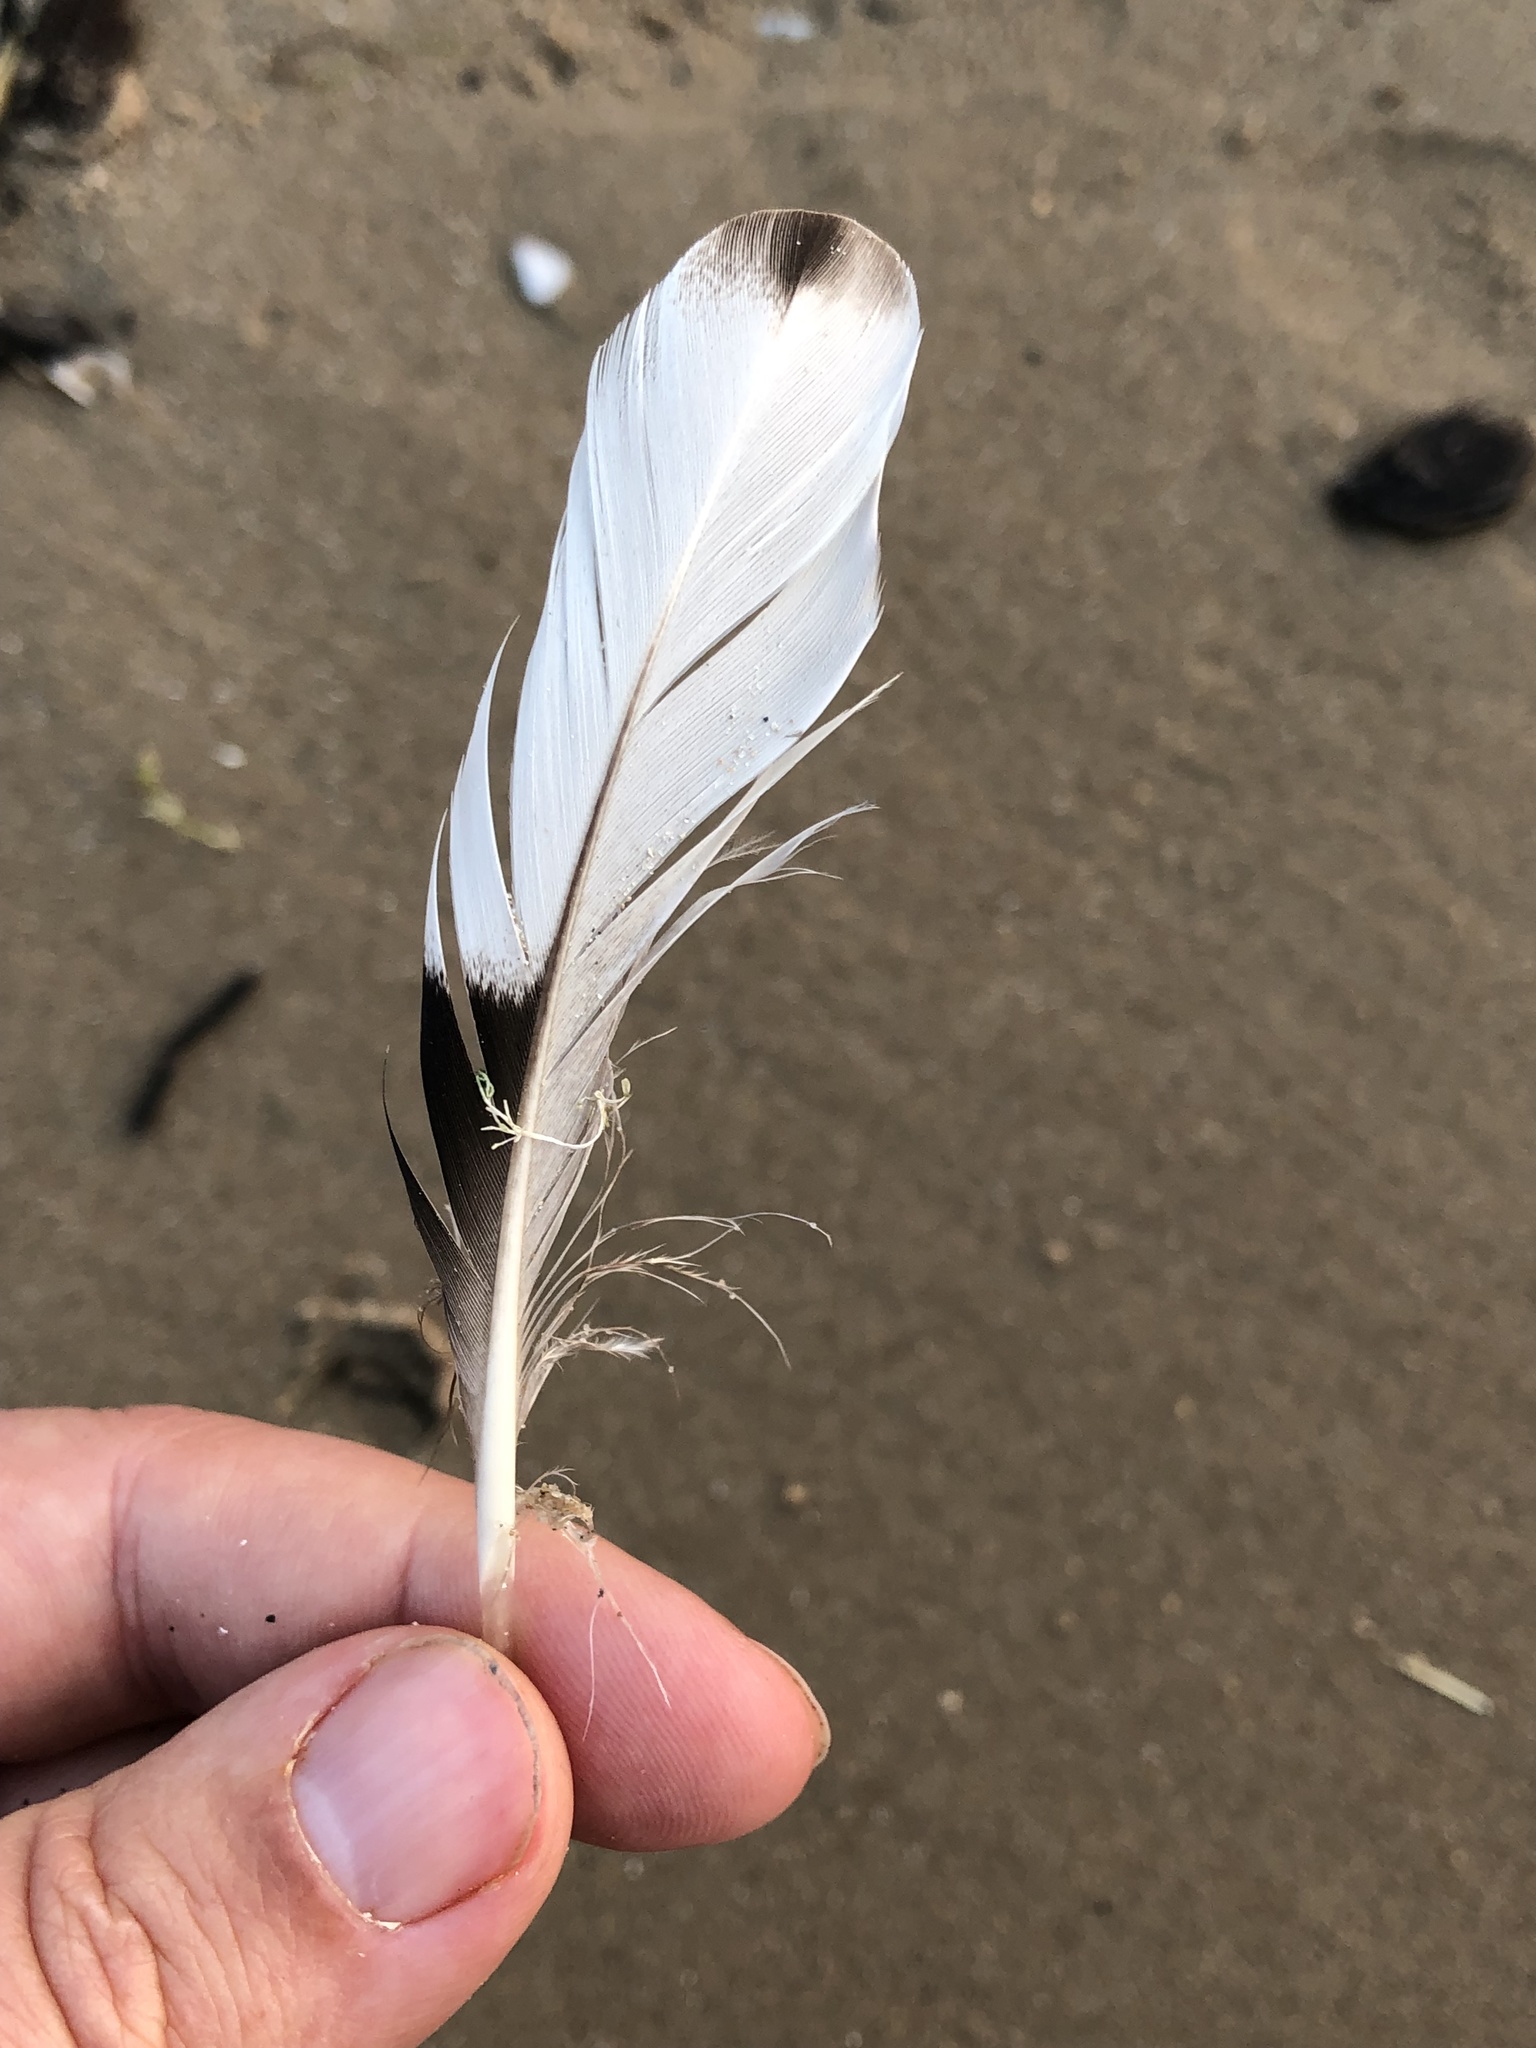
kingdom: Animalia
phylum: Chordata
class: Aves
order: Anseriformes
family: Anatidae
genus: Mergus
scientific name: Mergus merganser
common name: Common merganser
